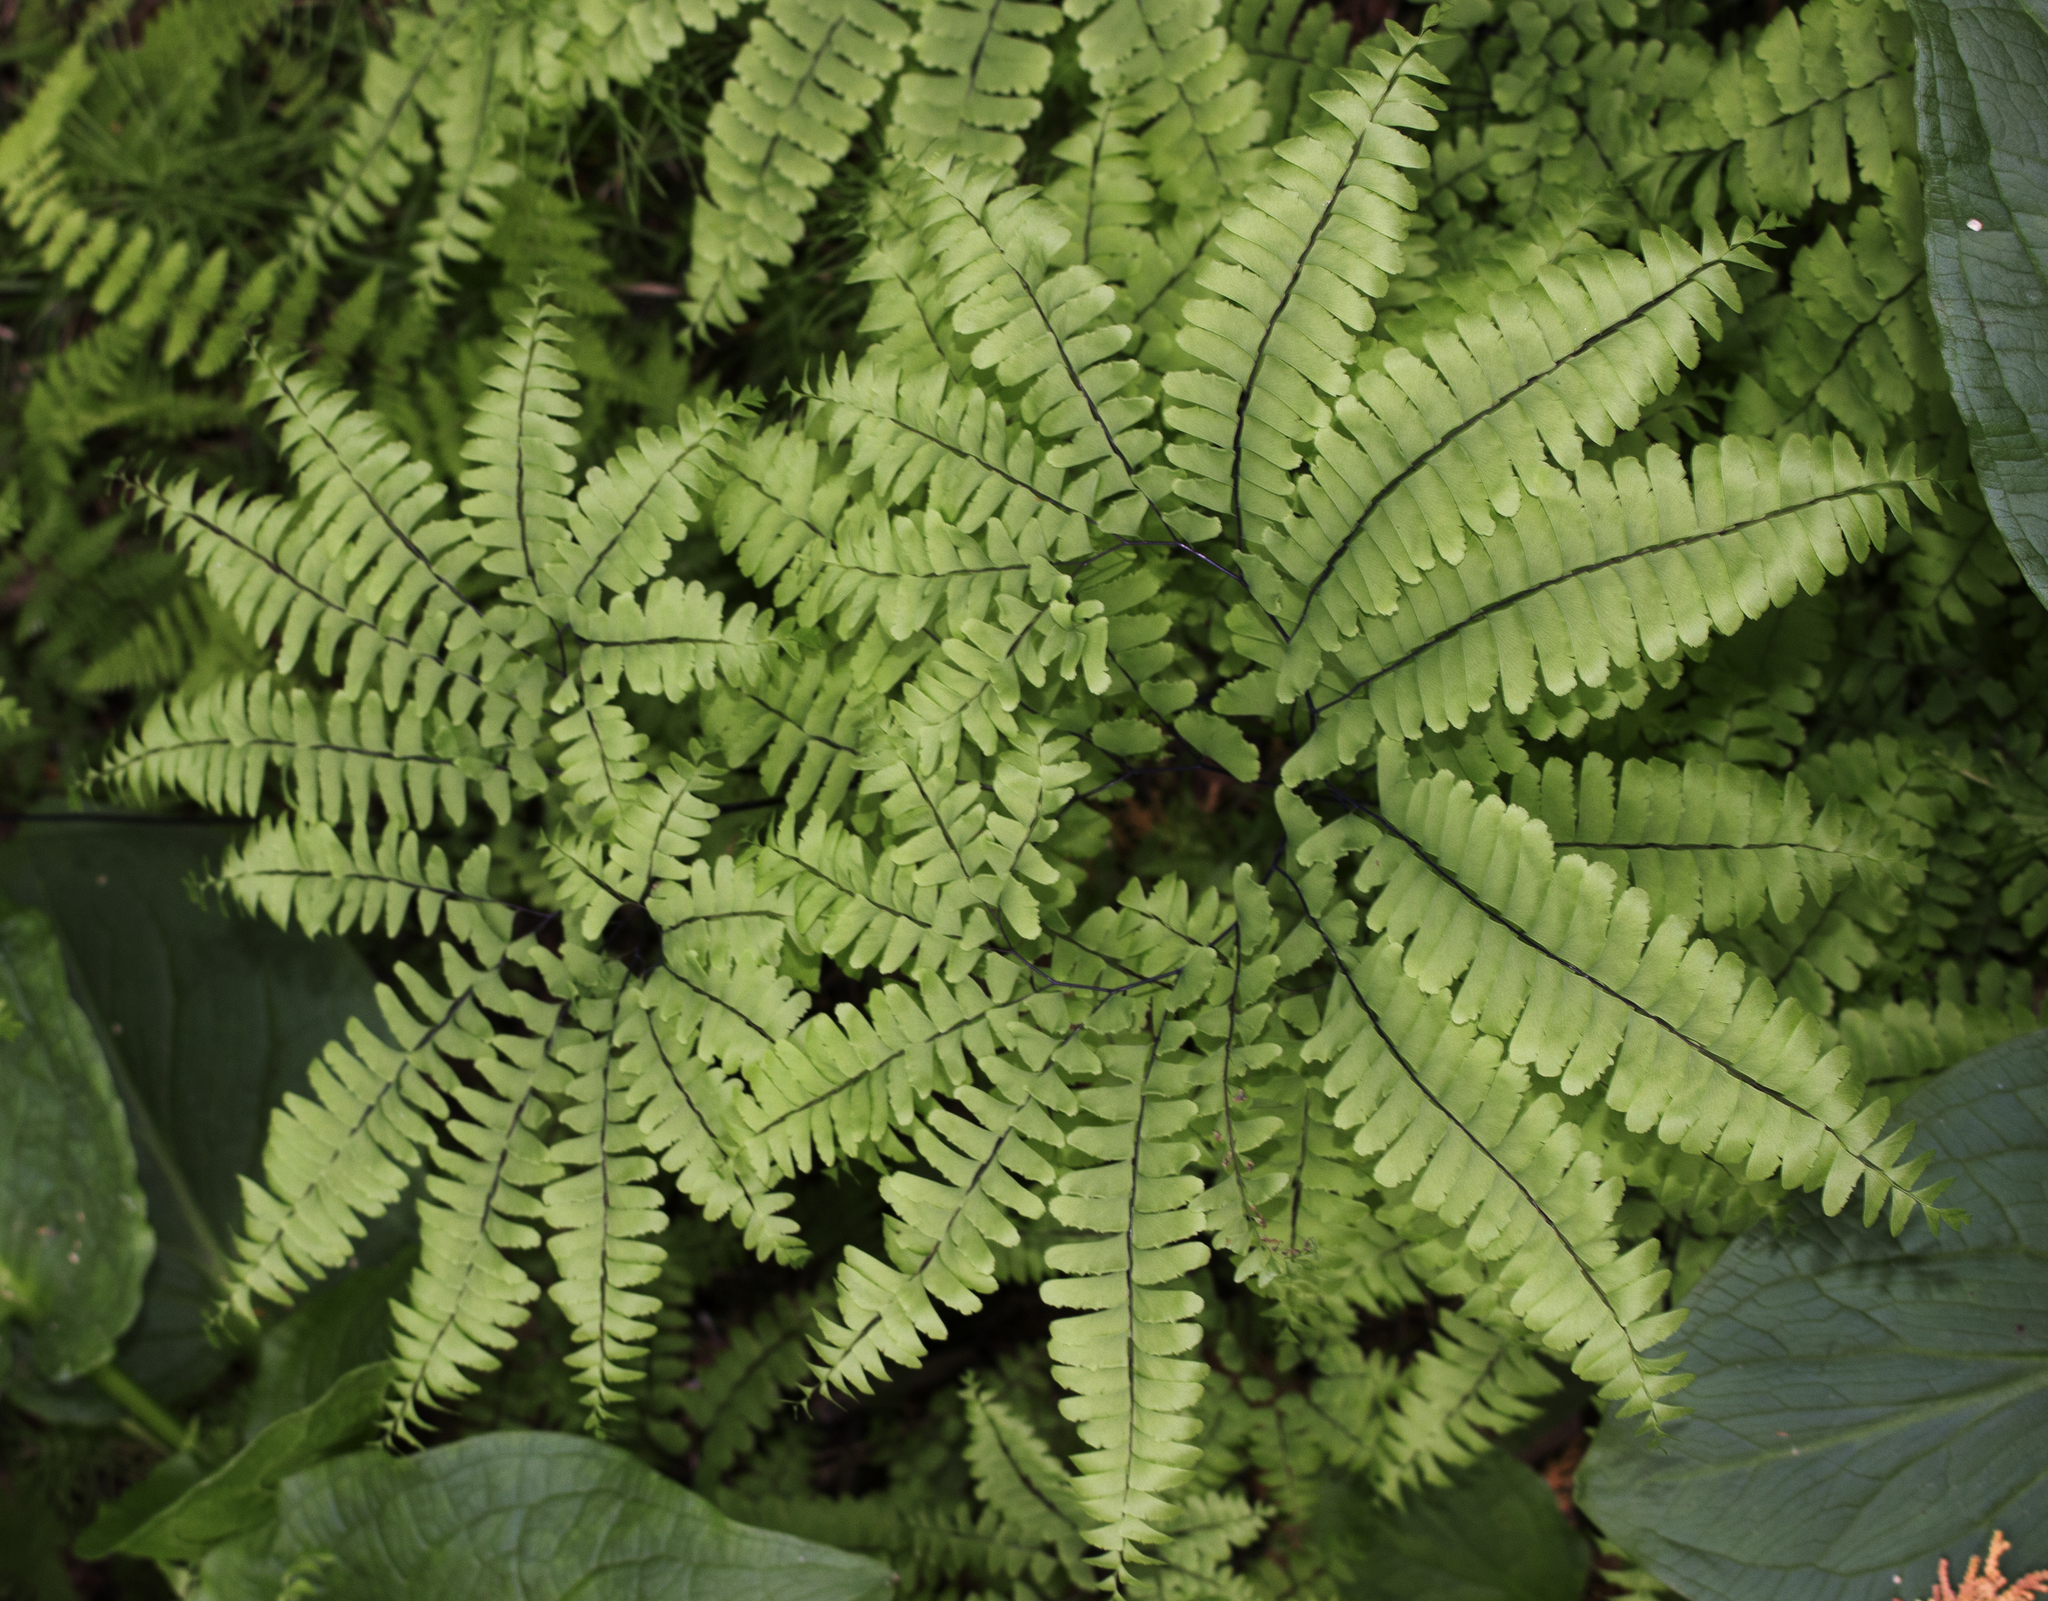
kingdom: Plantae
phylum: Tracheophyta
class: Polypodiopsida
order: Polypodiales
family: Pteridaceae
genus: Adiantum
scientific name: Adiantum pedatum
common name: Five-finger fern
